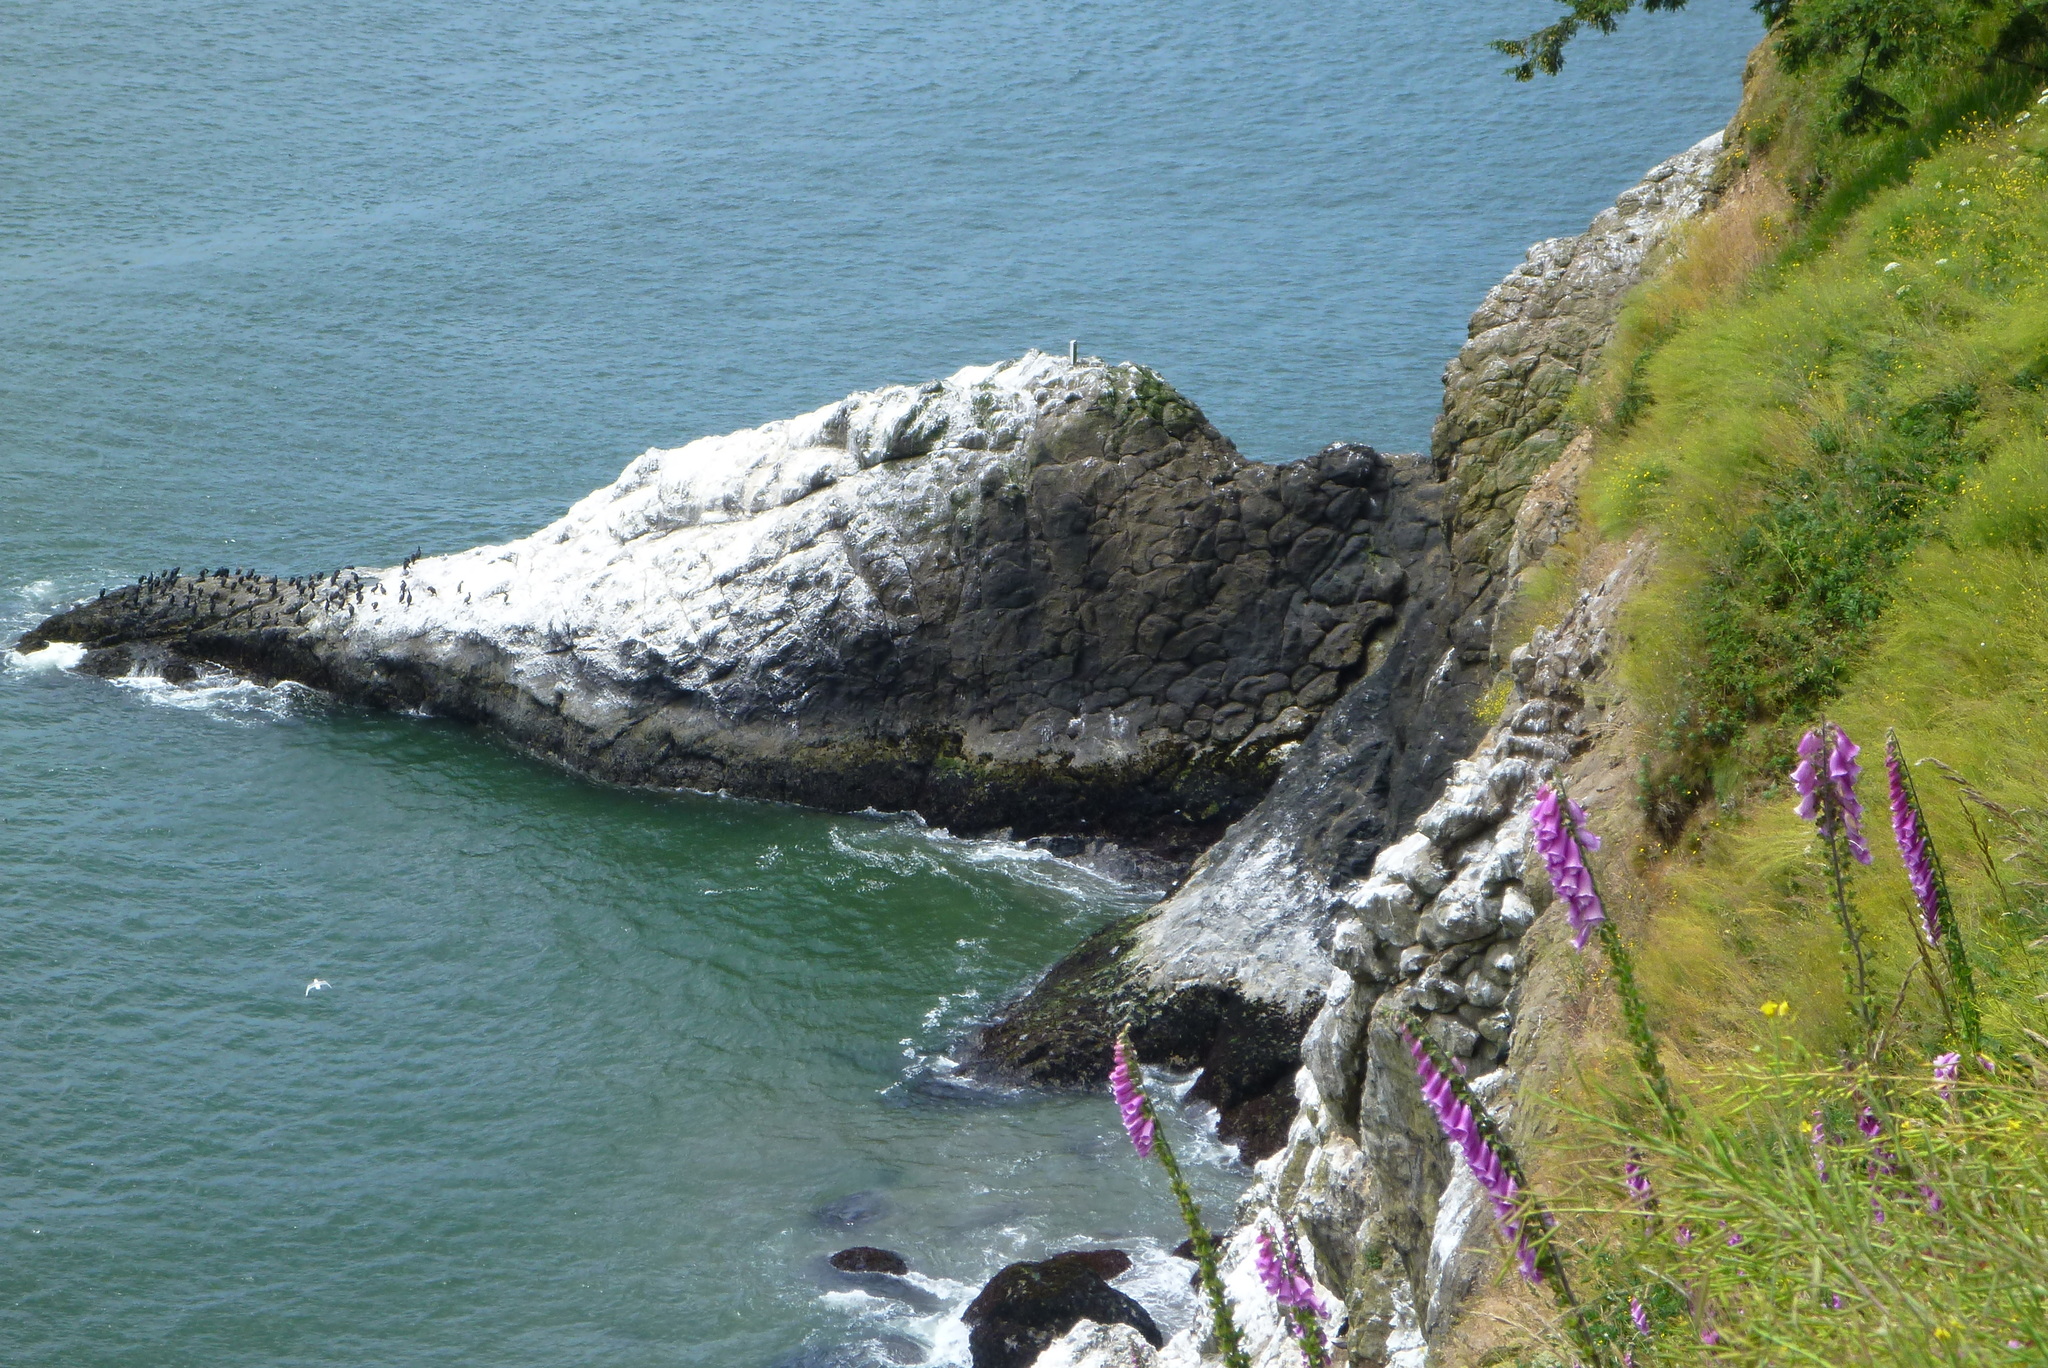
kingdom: Plantae
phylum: Tracheophyta
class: Magnoliopsida
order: Lamiales
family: Plantaginaceae
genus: Digitalis
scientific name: Digitalis purpurea
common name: Foxglove
